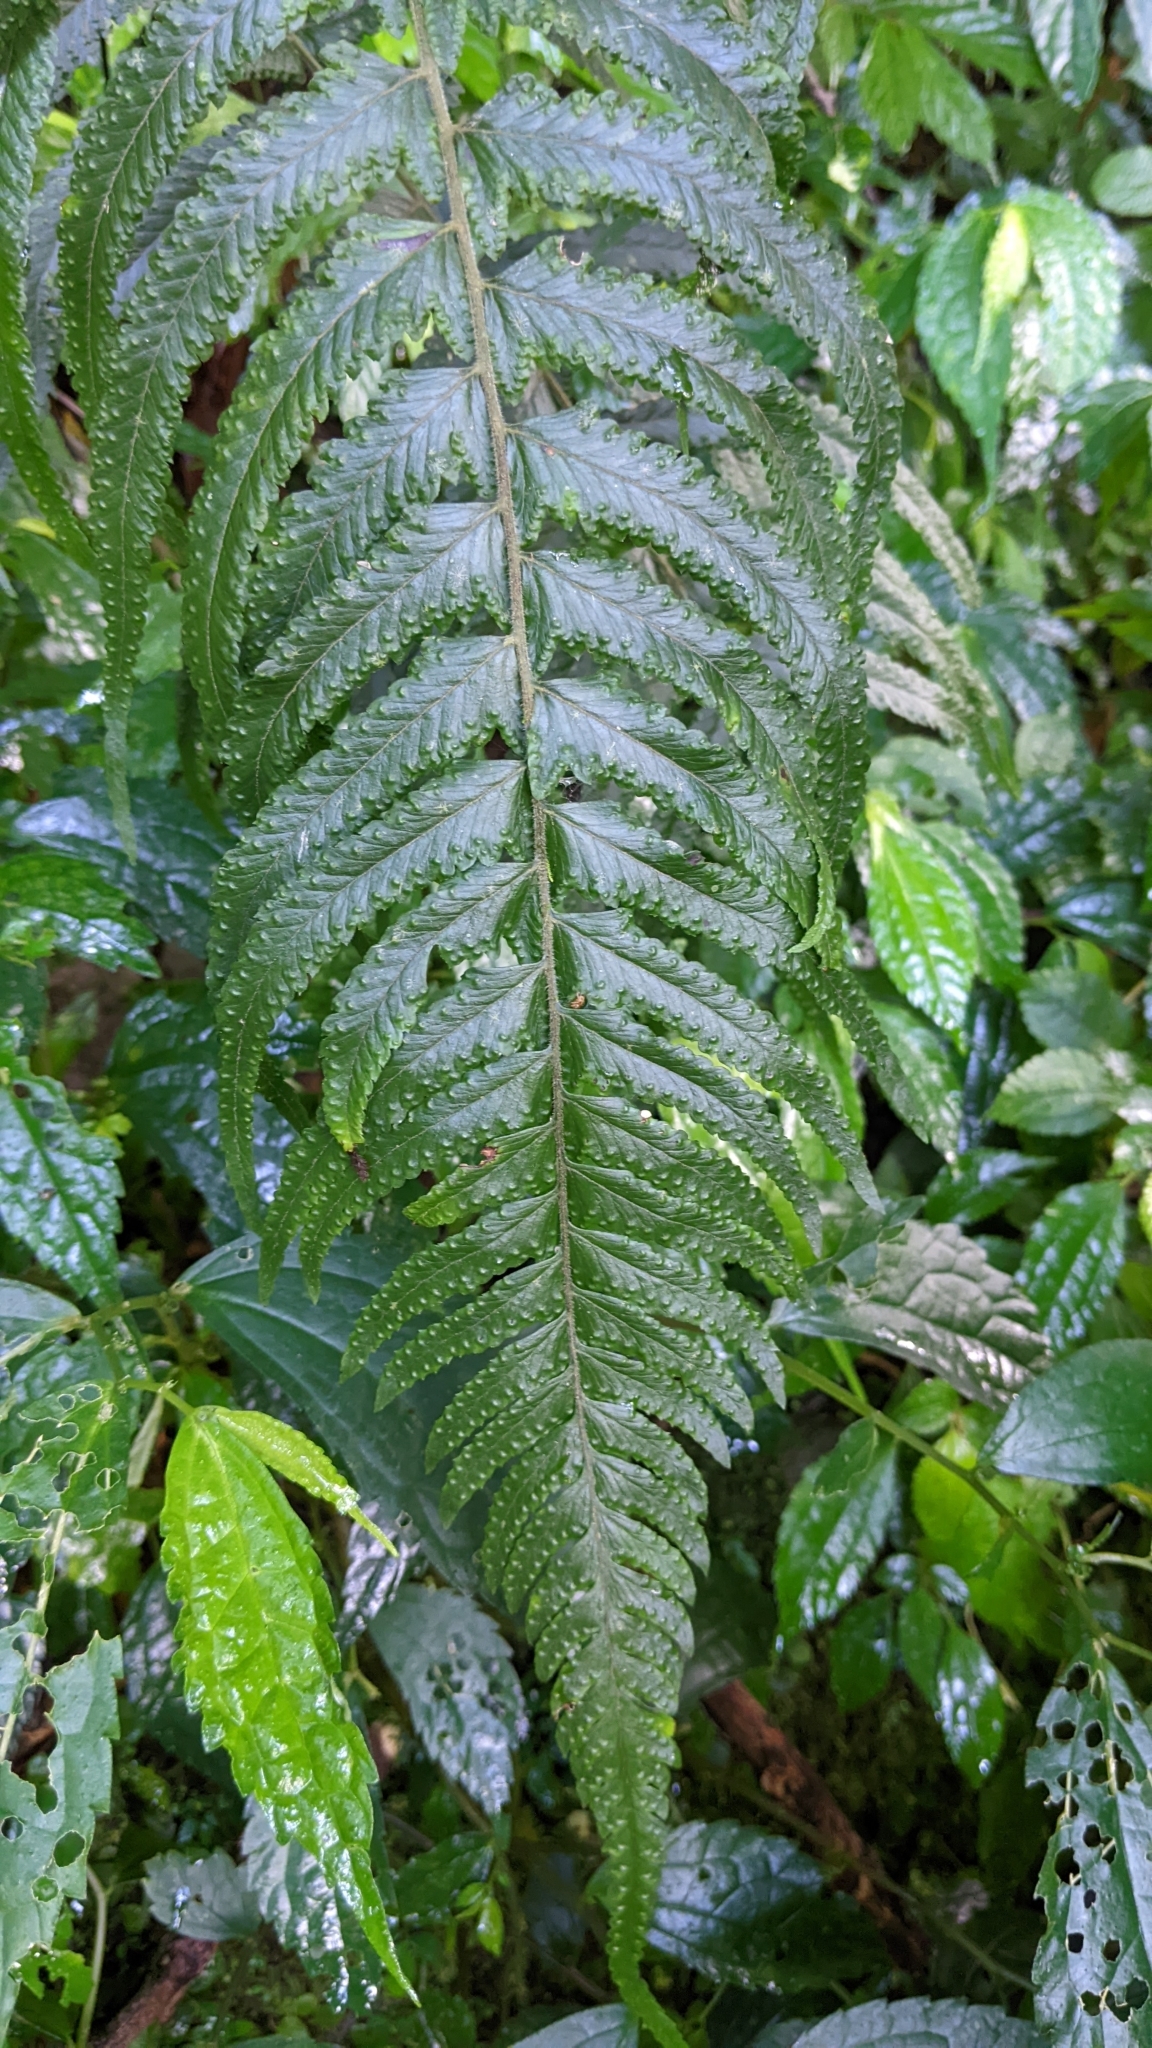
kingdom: Plantae
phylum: Tracheophyta
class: Polypodiopsida
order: Polypodiales
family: Dennstaedtiaceae
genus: Microlepia
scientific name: Microlepia marginata
